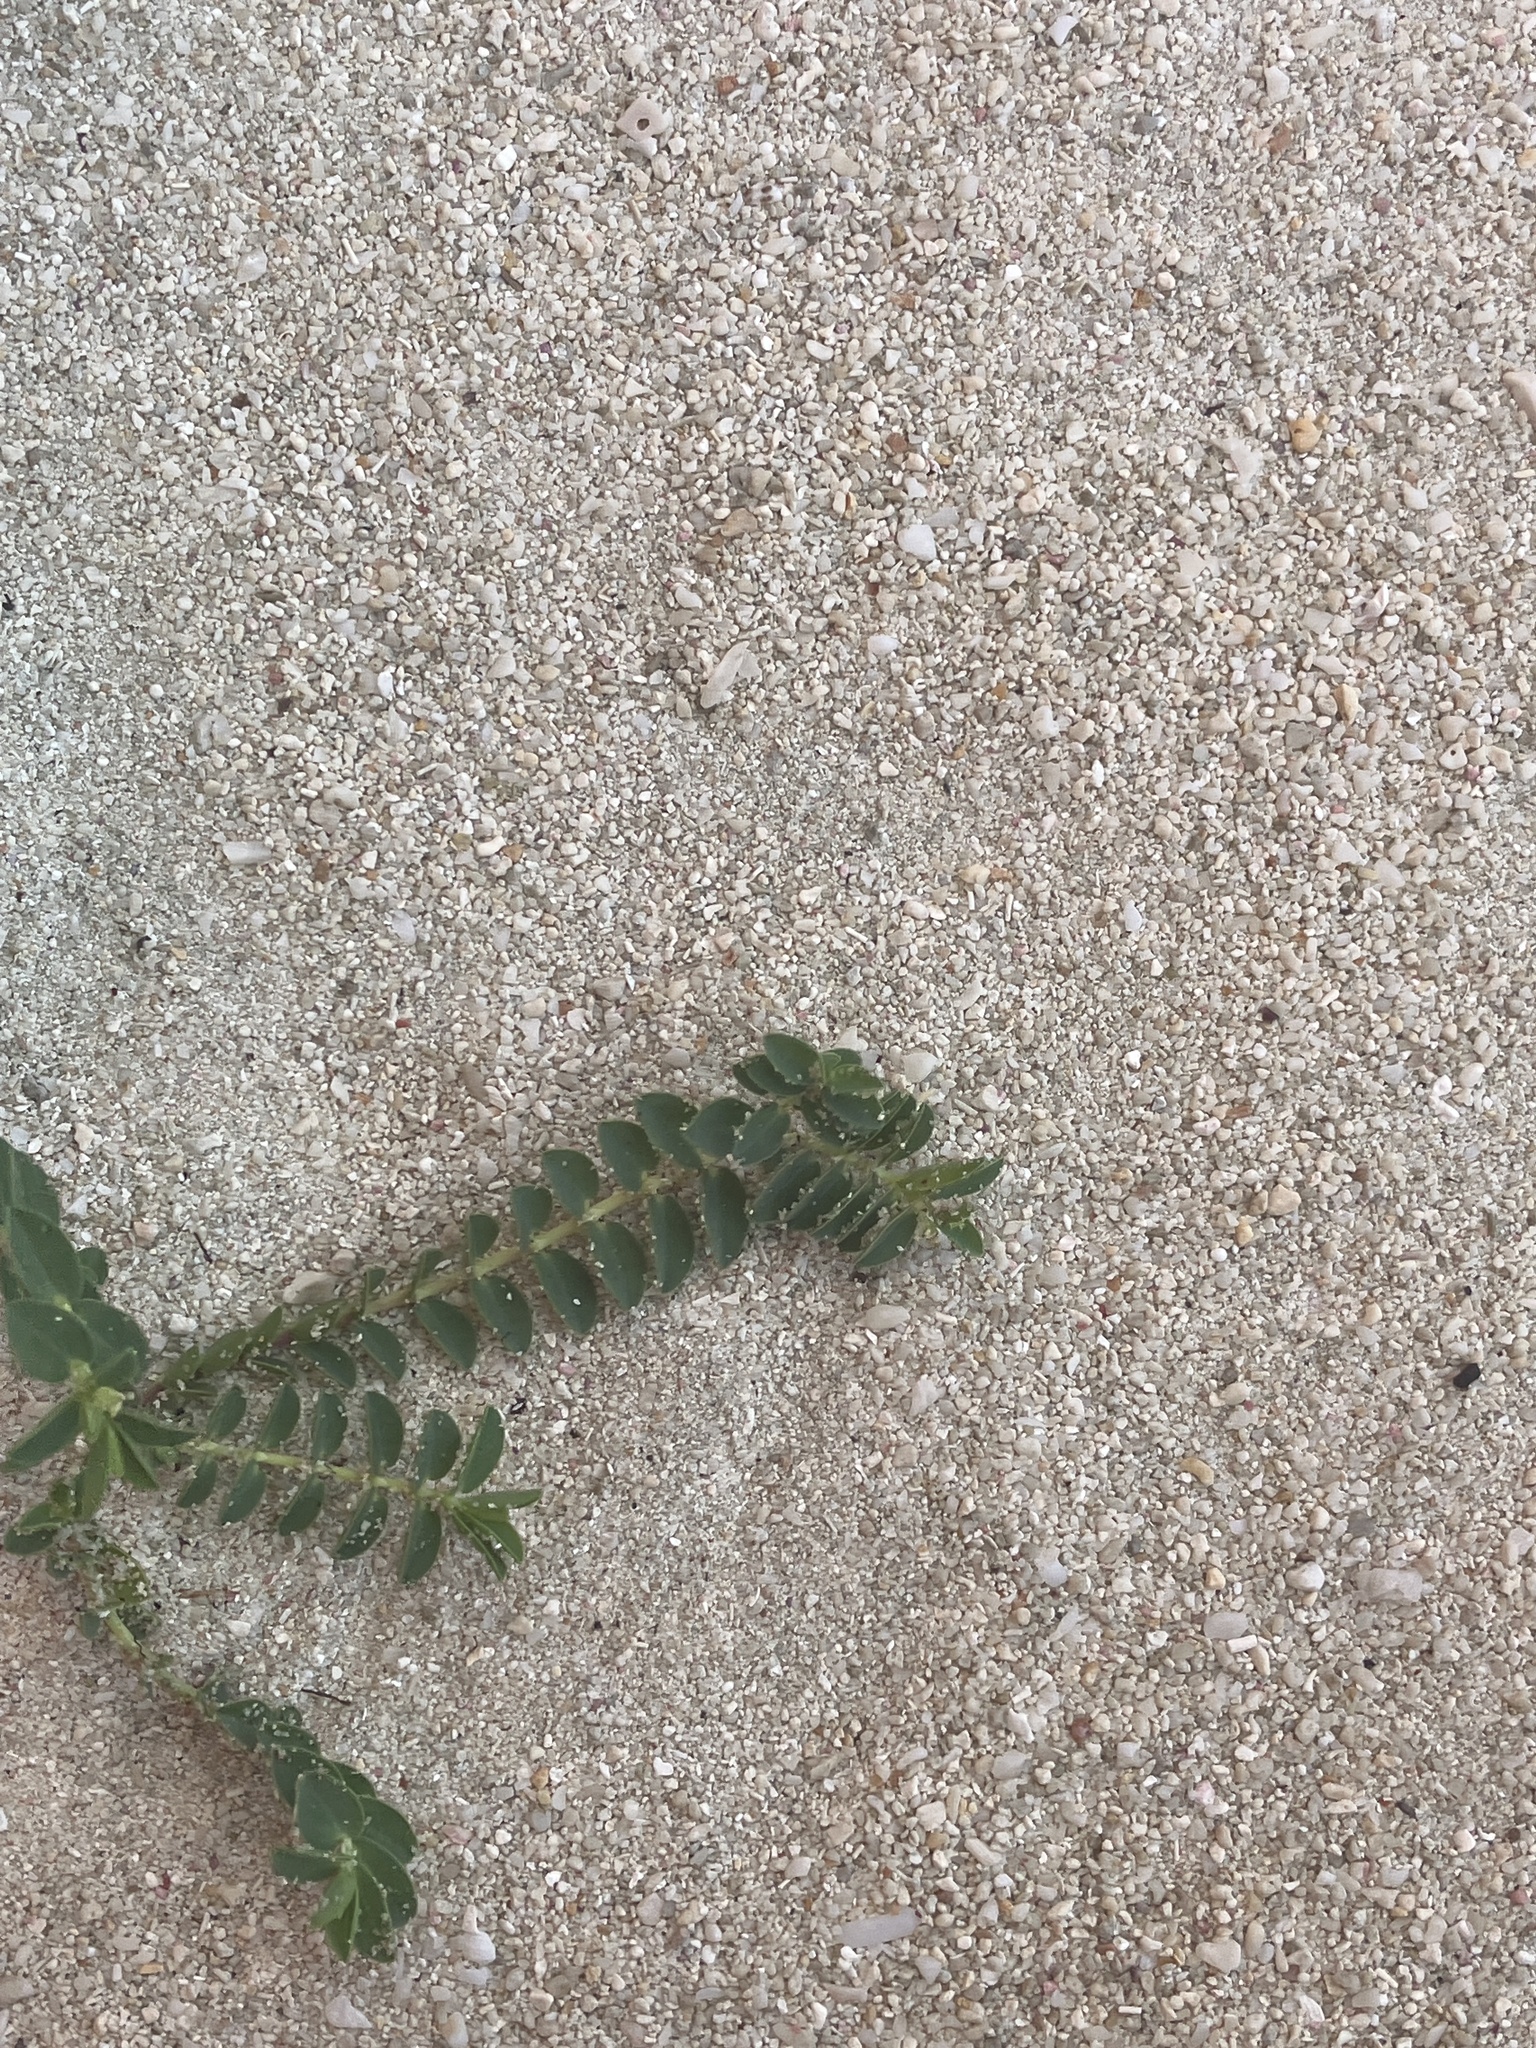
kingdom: Plantae
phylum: Tracheophyta
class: Magnoliopsida
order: Malpighiales
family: Euphorbiaceae
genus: Euphorbia
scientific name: Euphorbia mesembryanthemifolia
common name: Coastal beach sandmat
